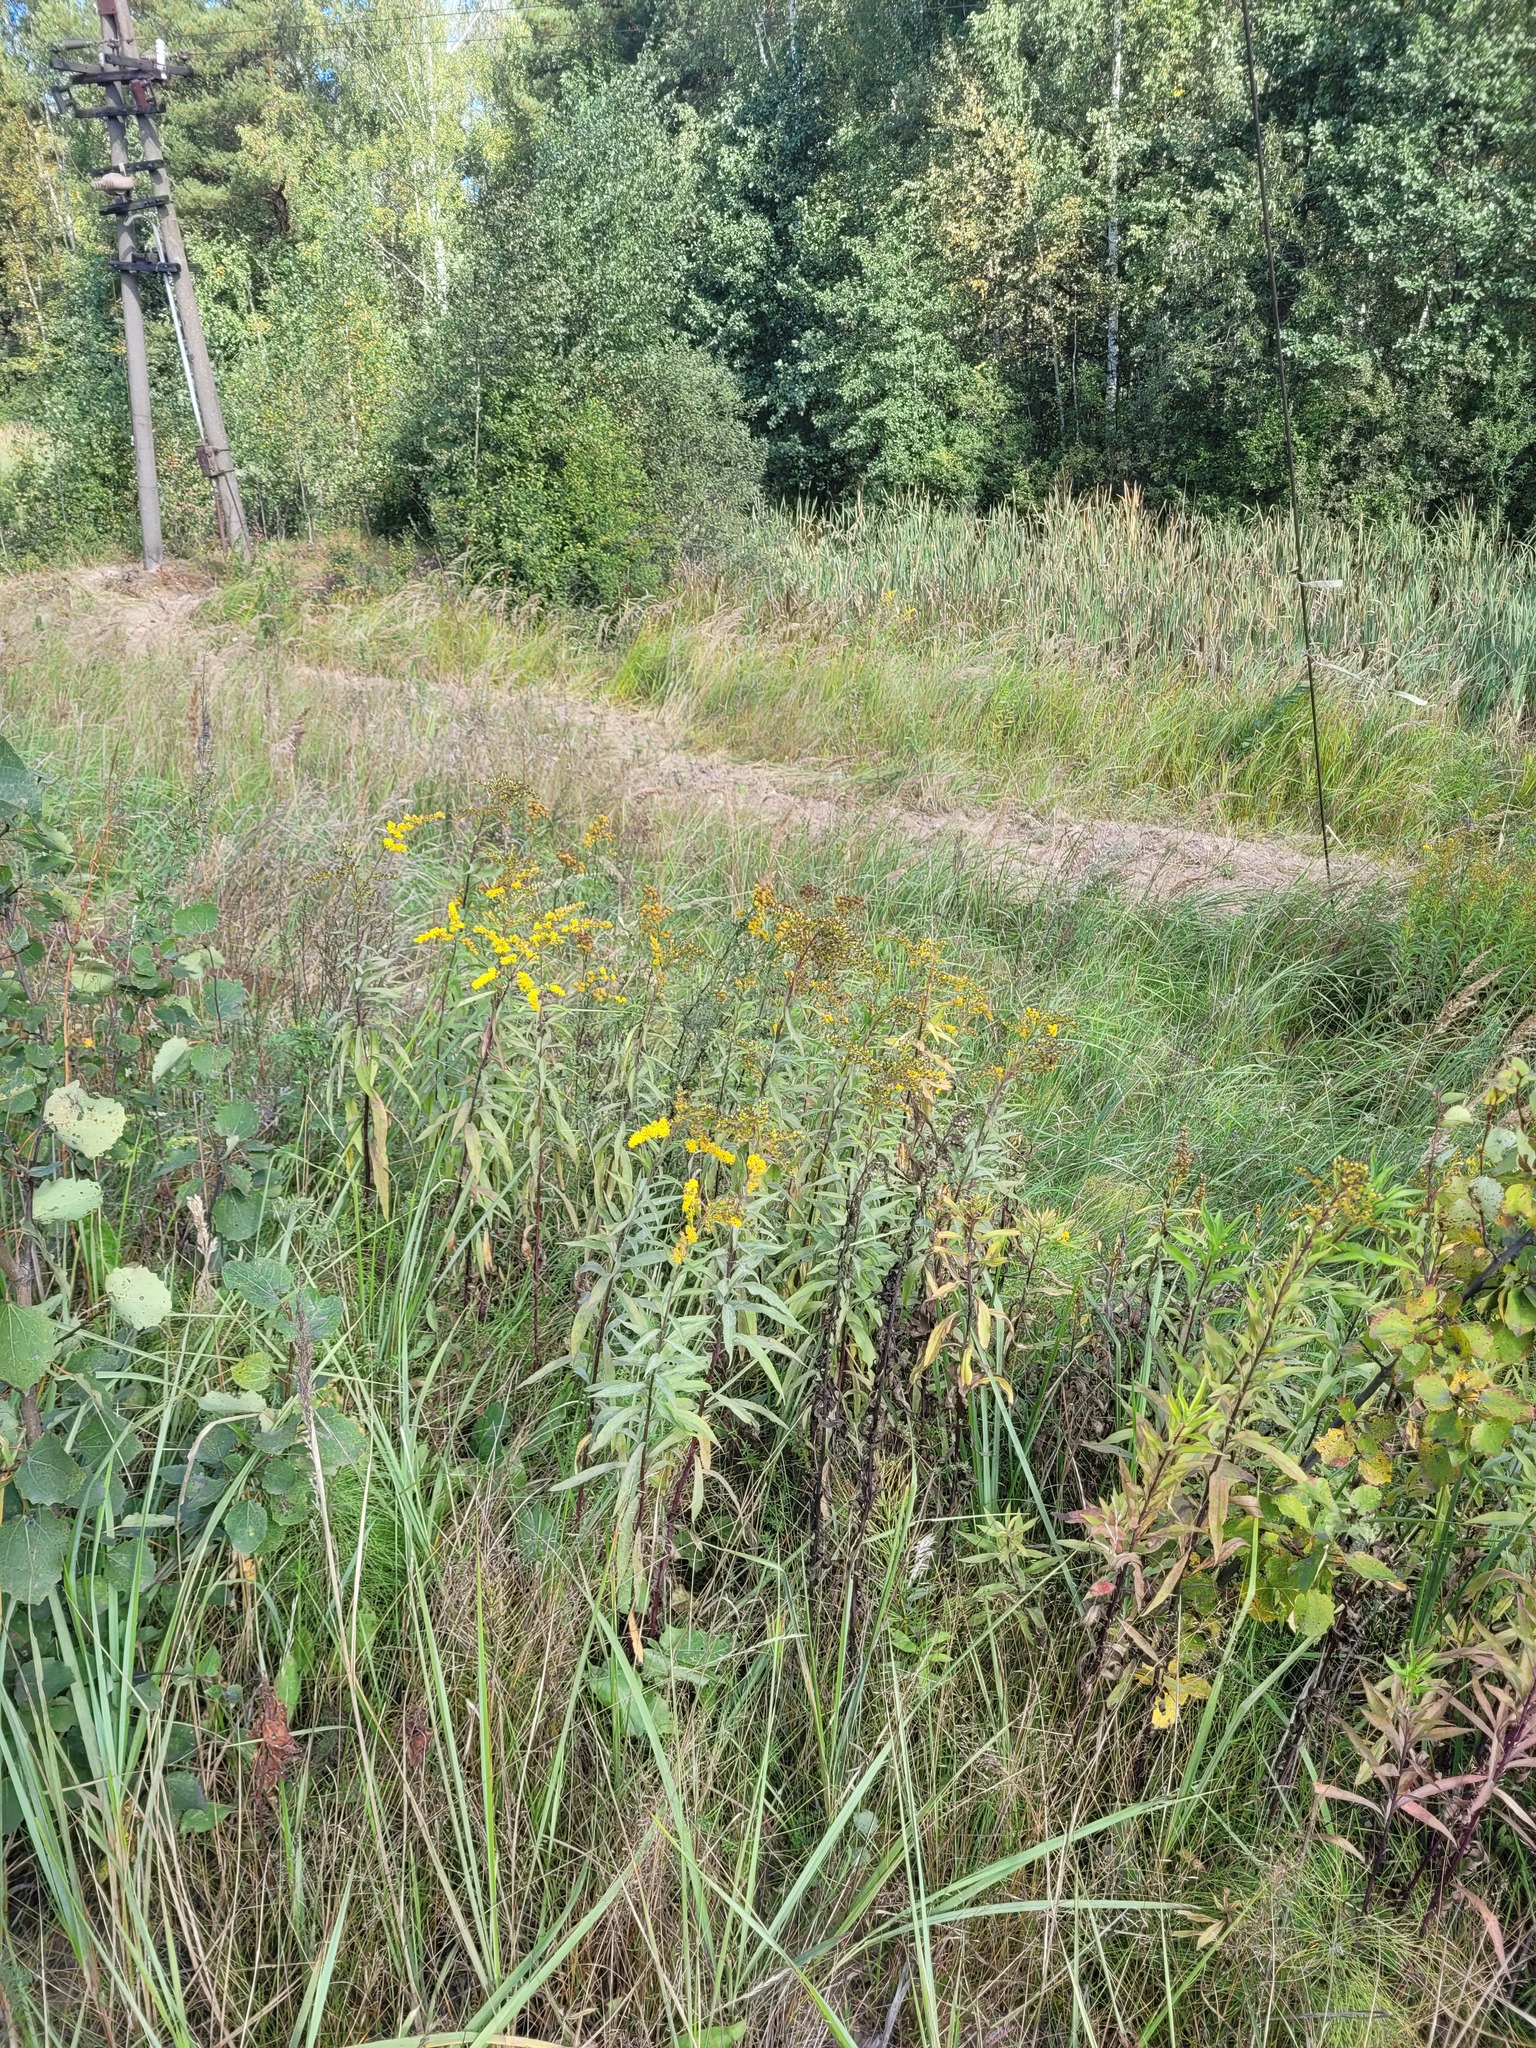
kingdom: Plantae
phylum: Tracheophyta
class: Magnoliopsida
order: Asterales
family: Asteraceae
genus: Solidago
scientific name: Solidago gigantea
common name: Giant goldenrod
